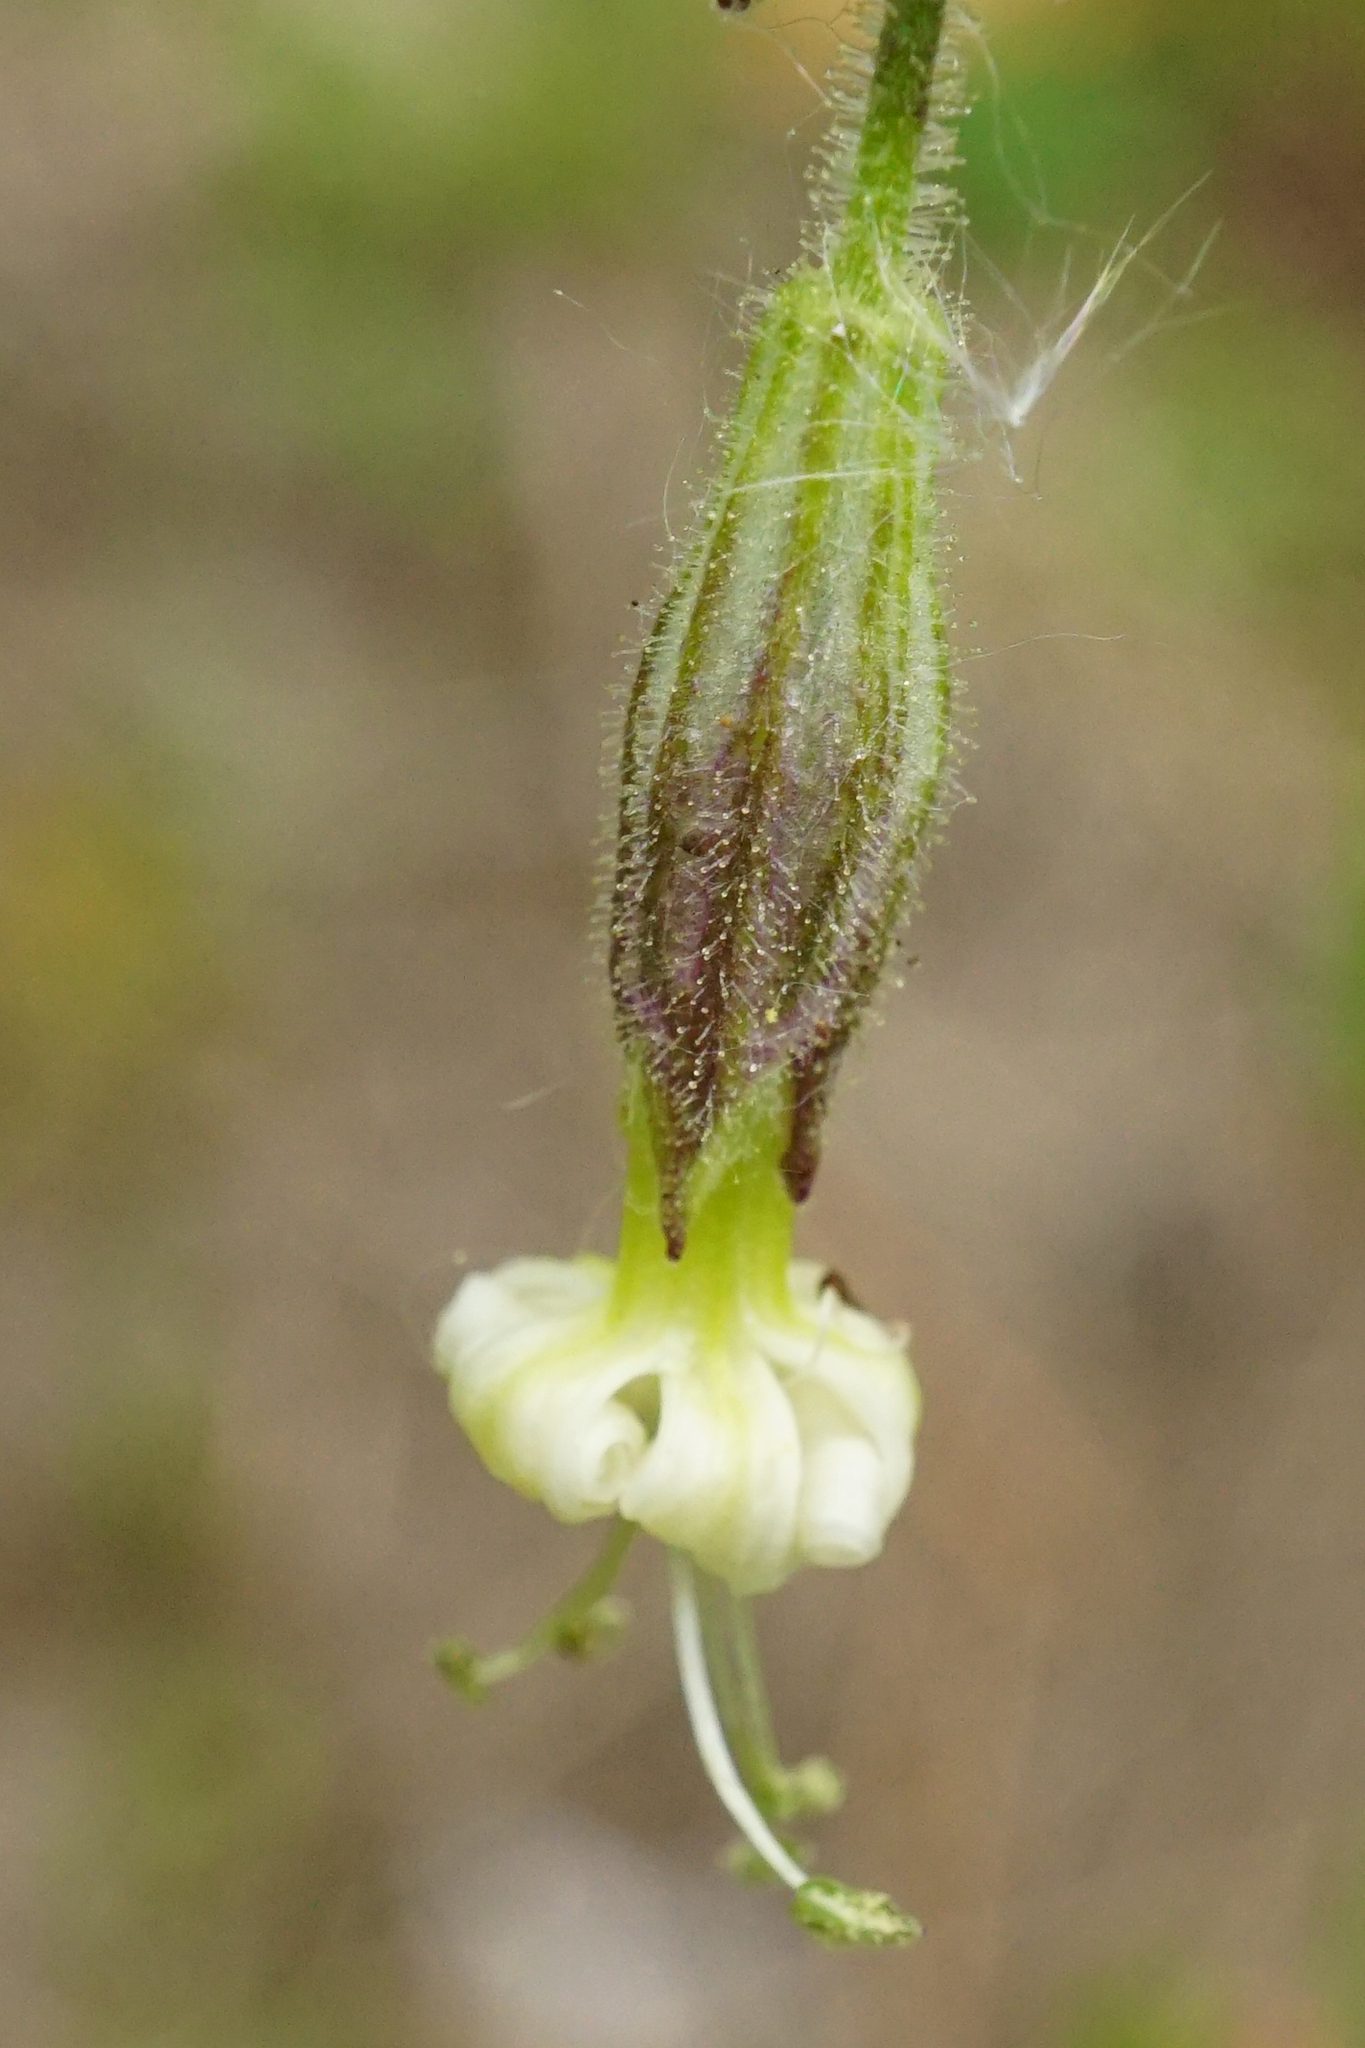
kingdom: Plantae
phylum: Tracheophyta
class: Magnoliopsida
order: Caryophyllales
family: Caryophyllaceae
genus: Silene
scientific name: Silene nutans
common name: Nottingham catchfly
